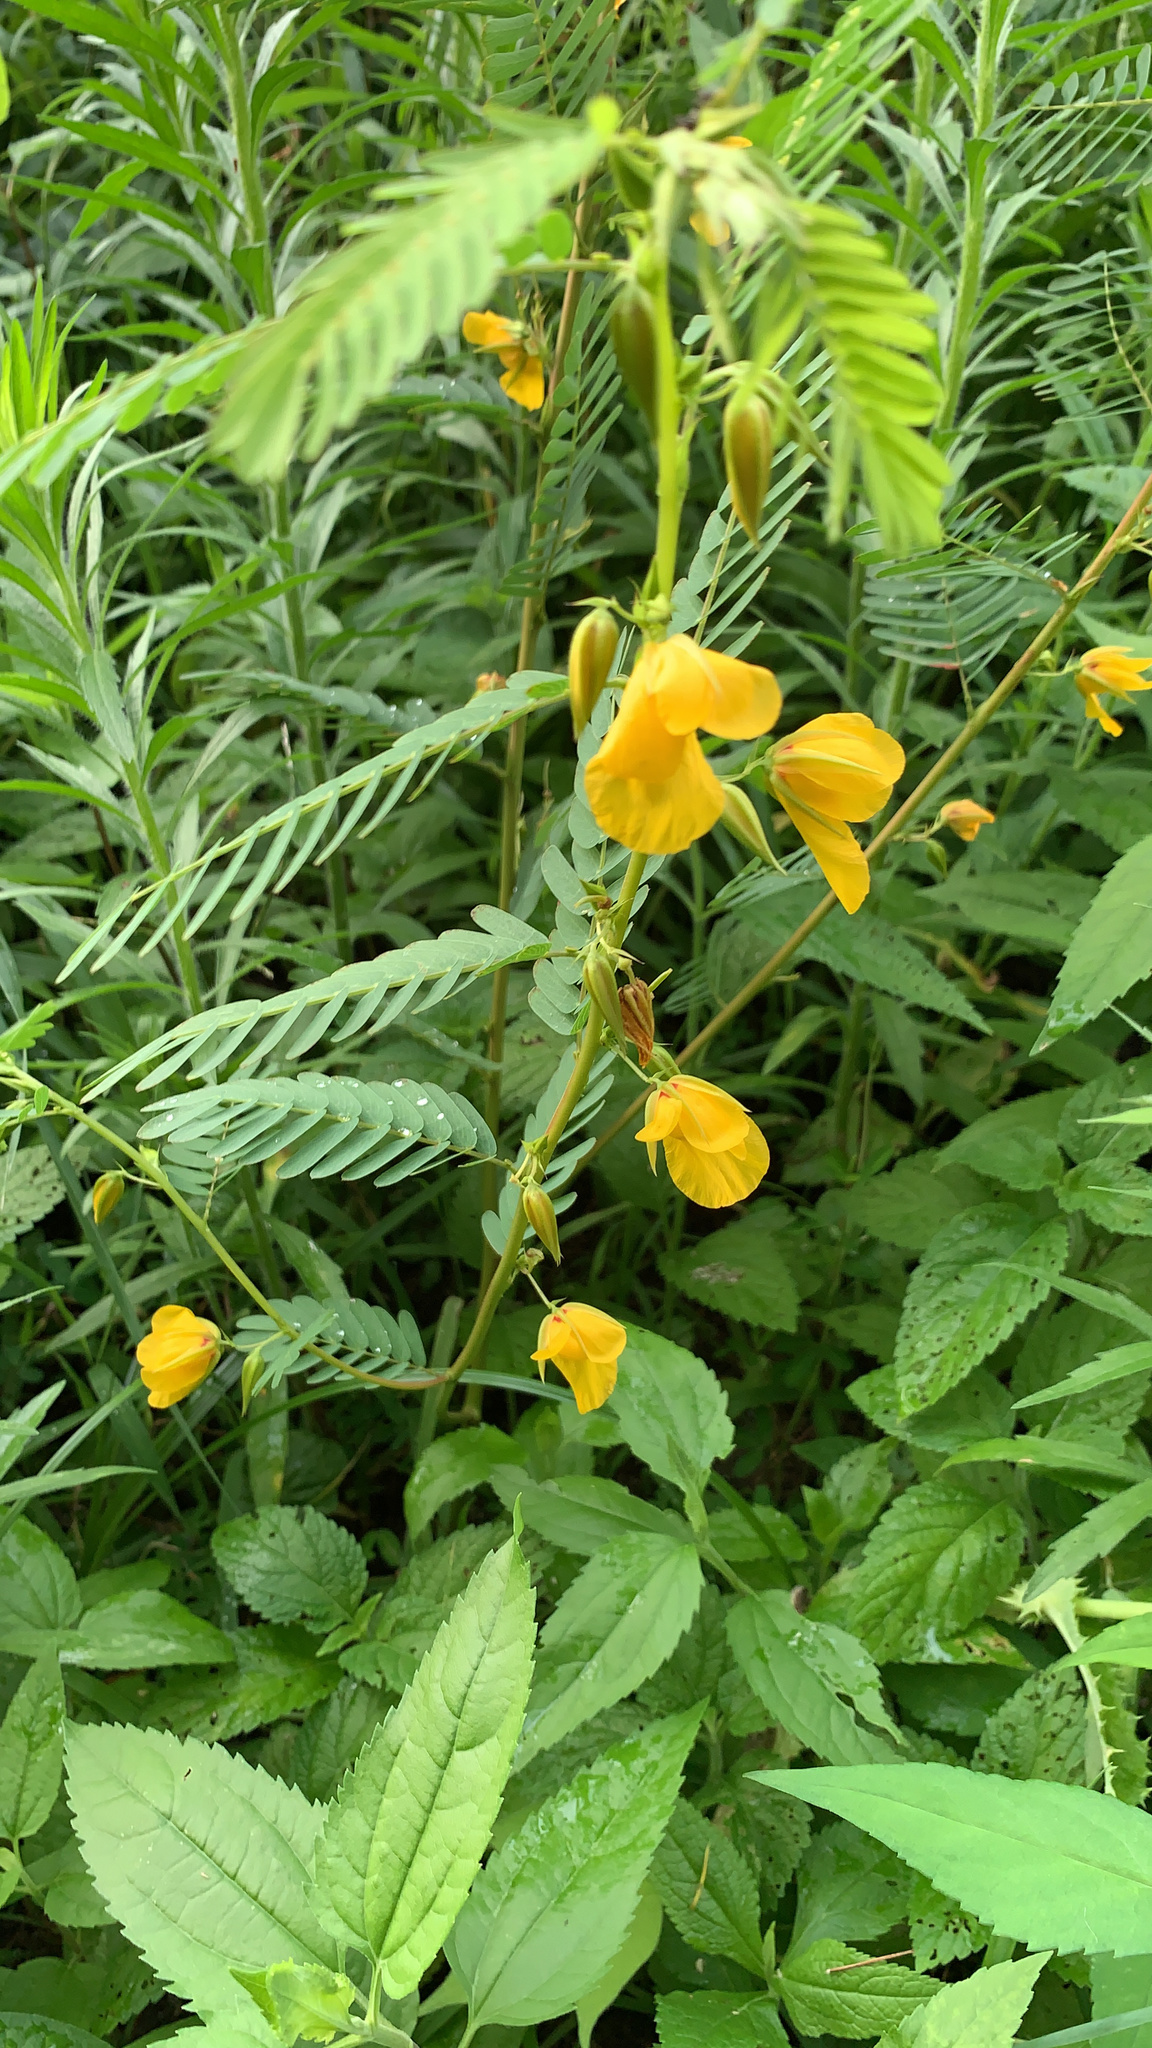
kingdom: Plantae
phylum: Tracheophyta
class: Magnoliopsida
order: Fabales
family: Fabaceae
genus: Chamaecrista
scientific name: Chamaecrista fasciculata
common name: Golden cassia
